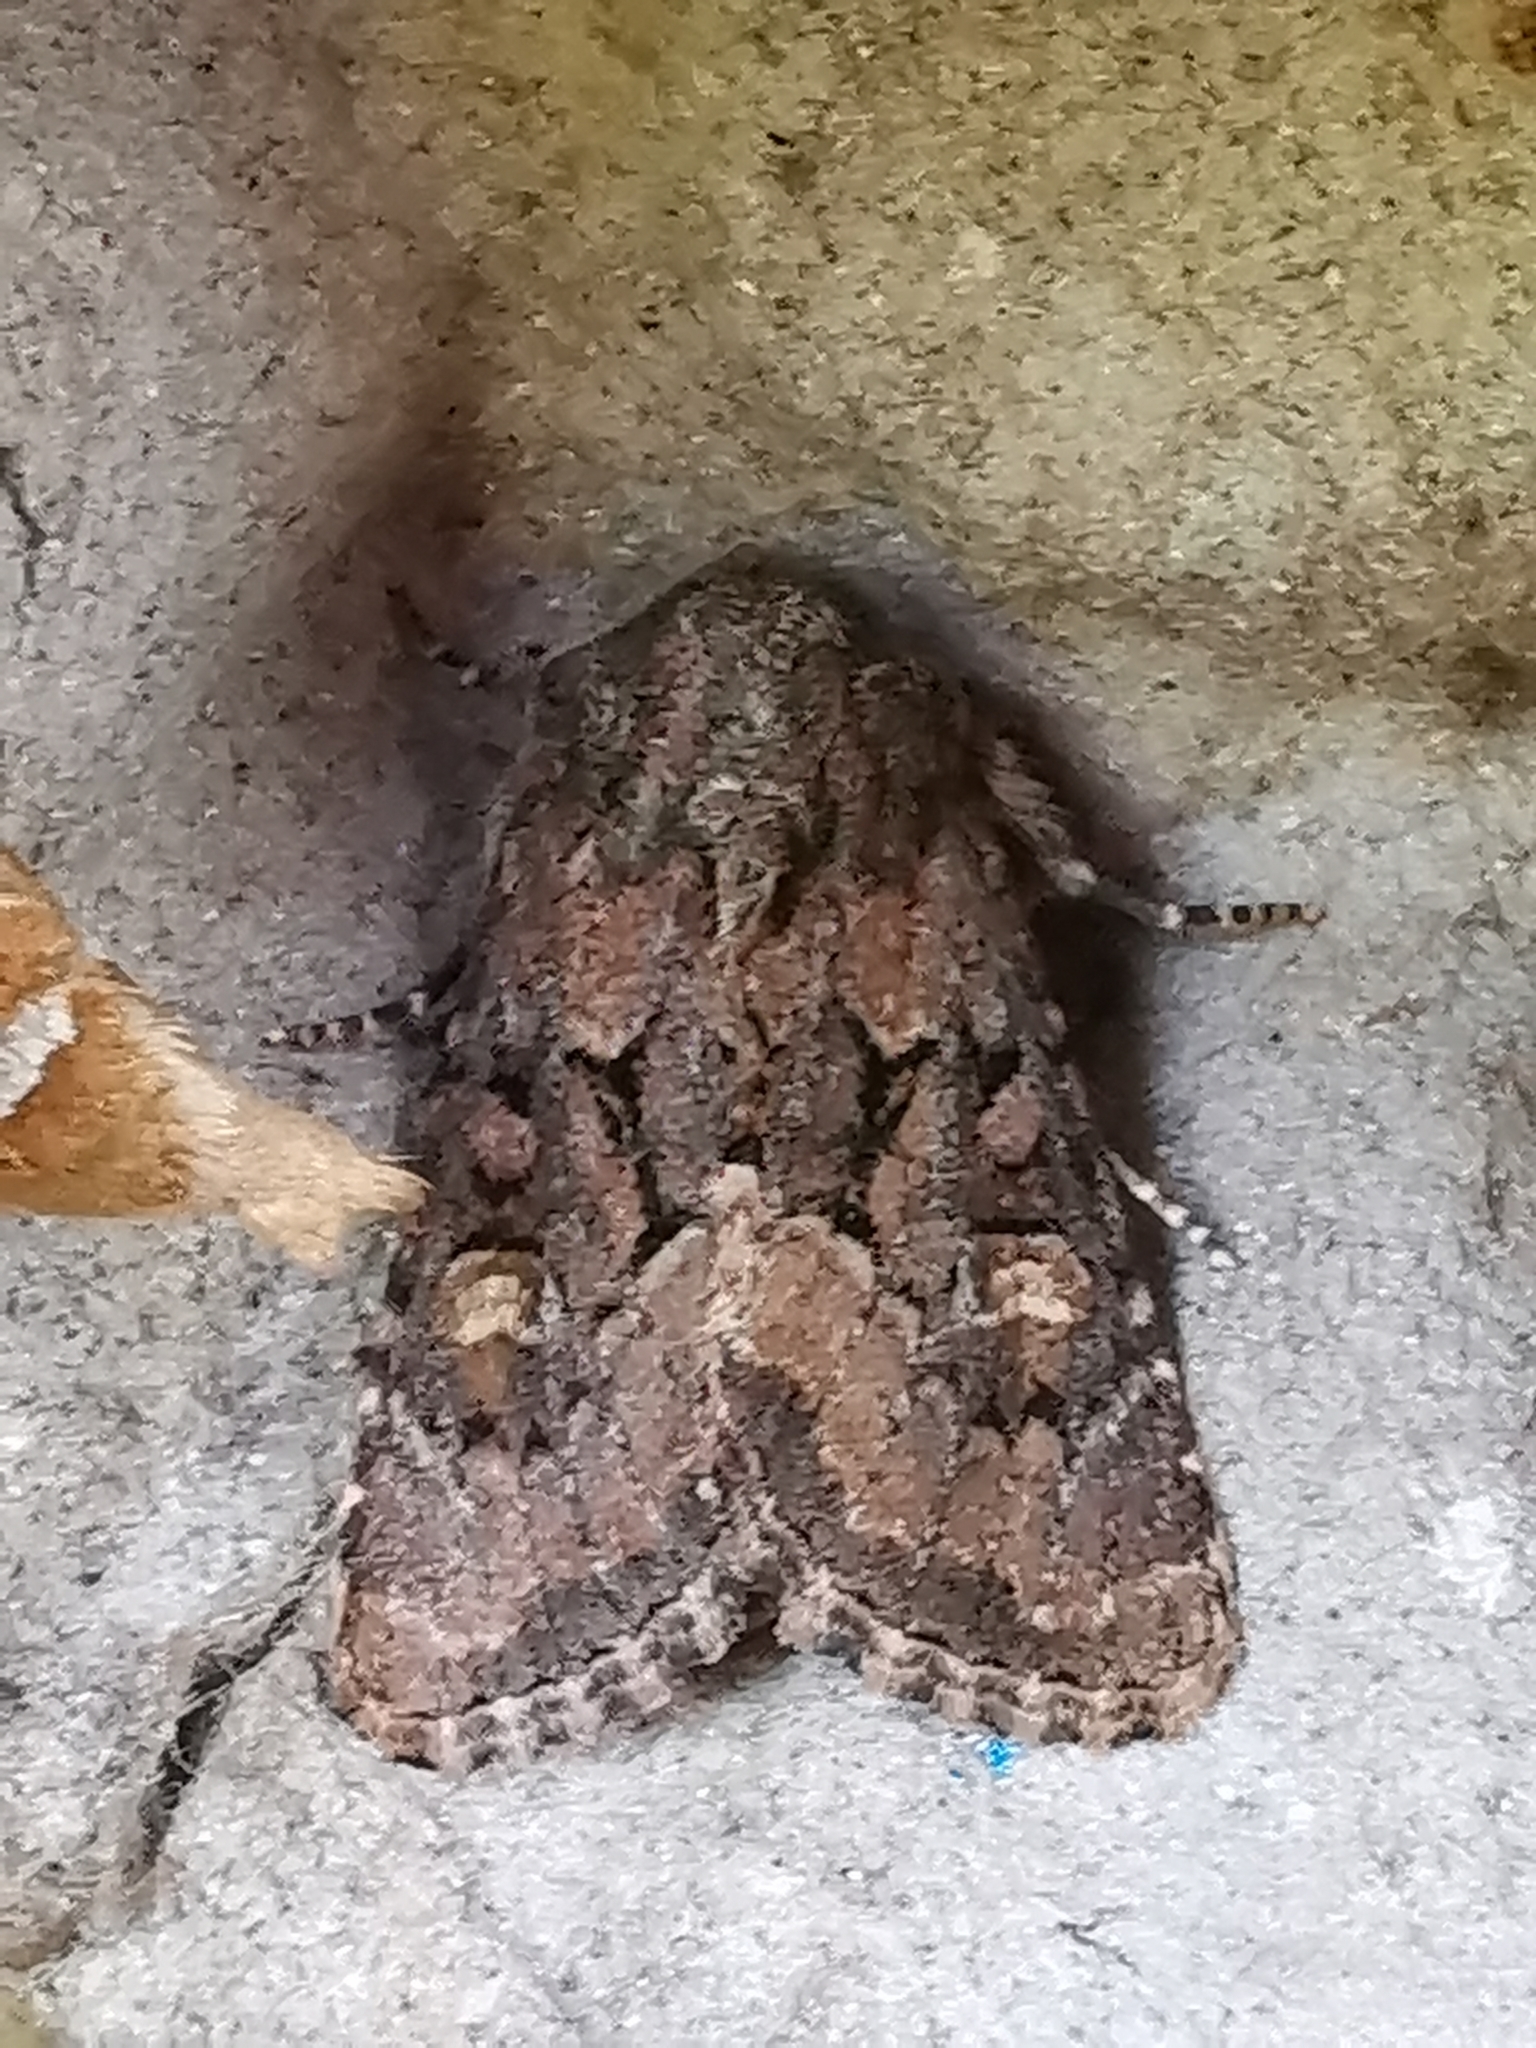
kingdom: Animalia
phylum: Arthropoda
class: Insecta
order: Lepidoptera
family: Noctuidae
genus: Luperina
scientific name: Luperina testacea
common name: Flounced rustic
